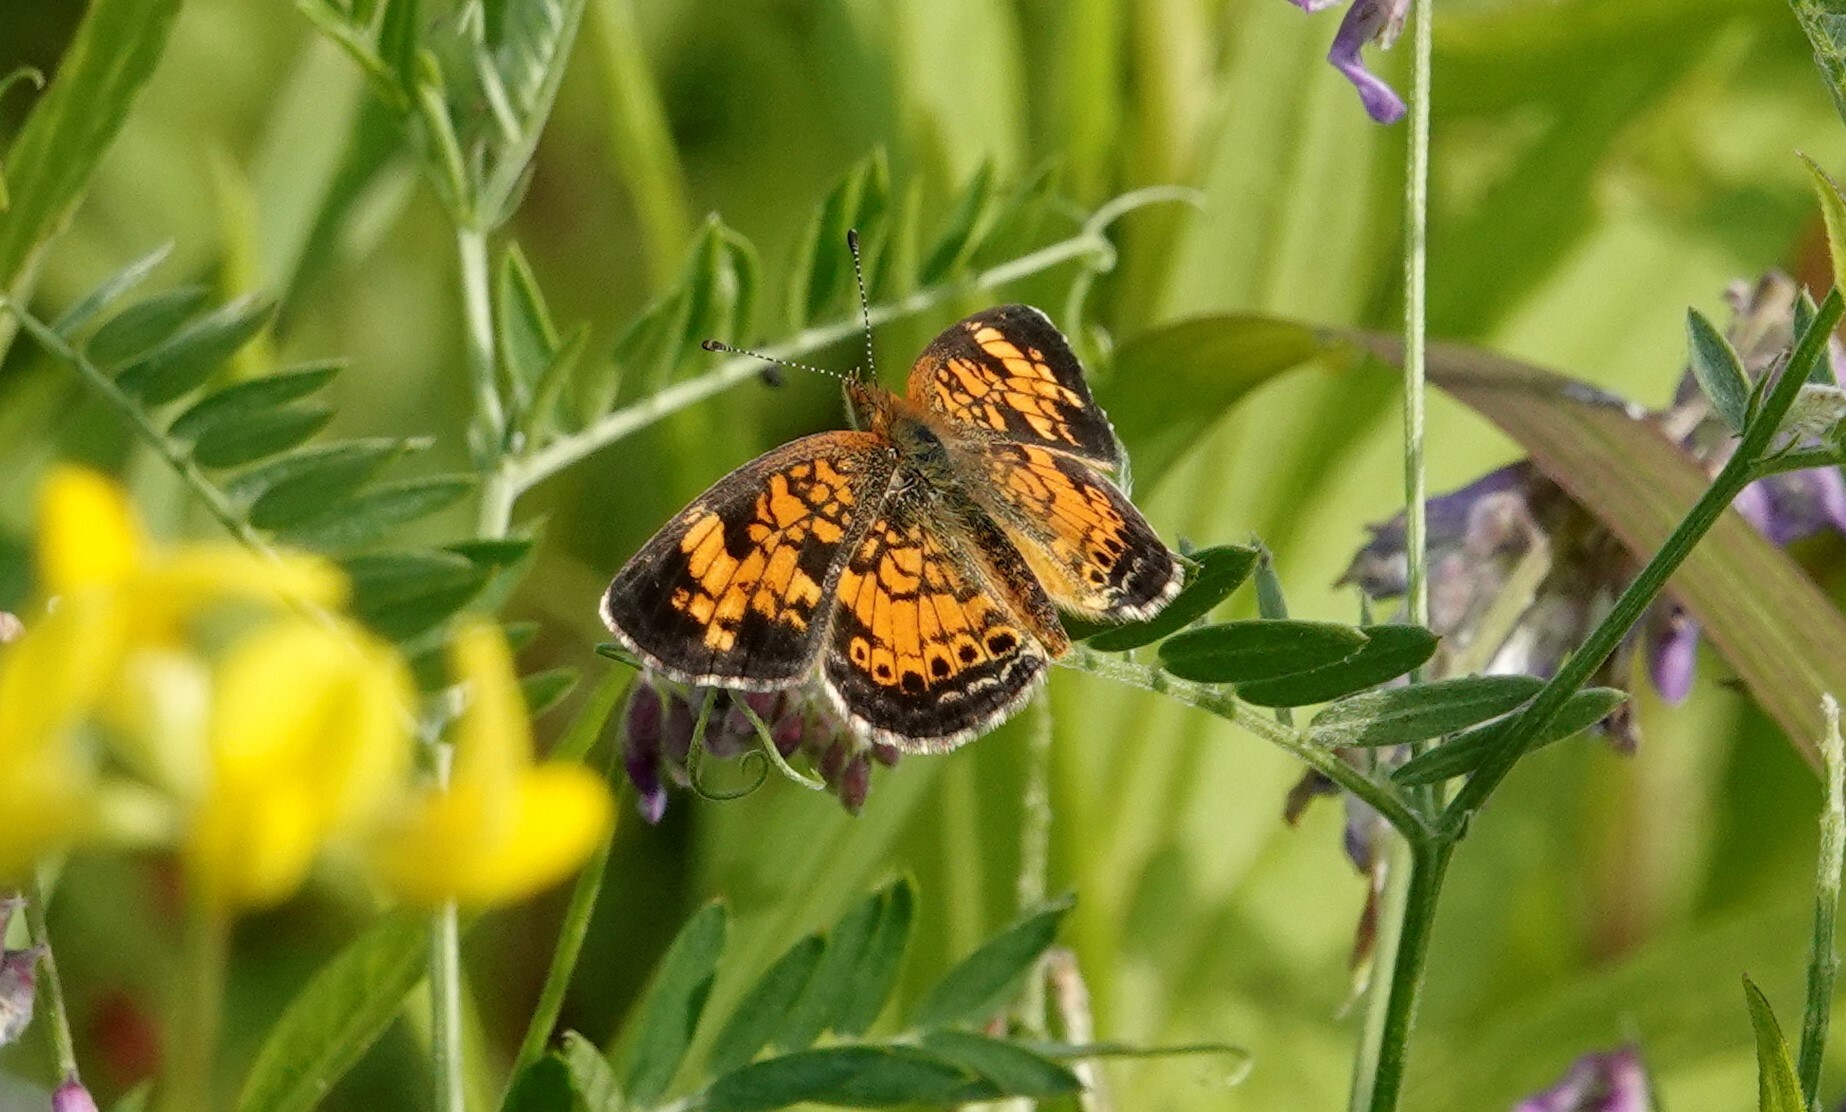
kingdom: Animalia
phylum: Arthropoda
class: Insecta
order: Lepidoptera
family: Nymphalidae
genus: Phyciodes
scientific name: Phyciodes tharos
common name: Pearl crescent
